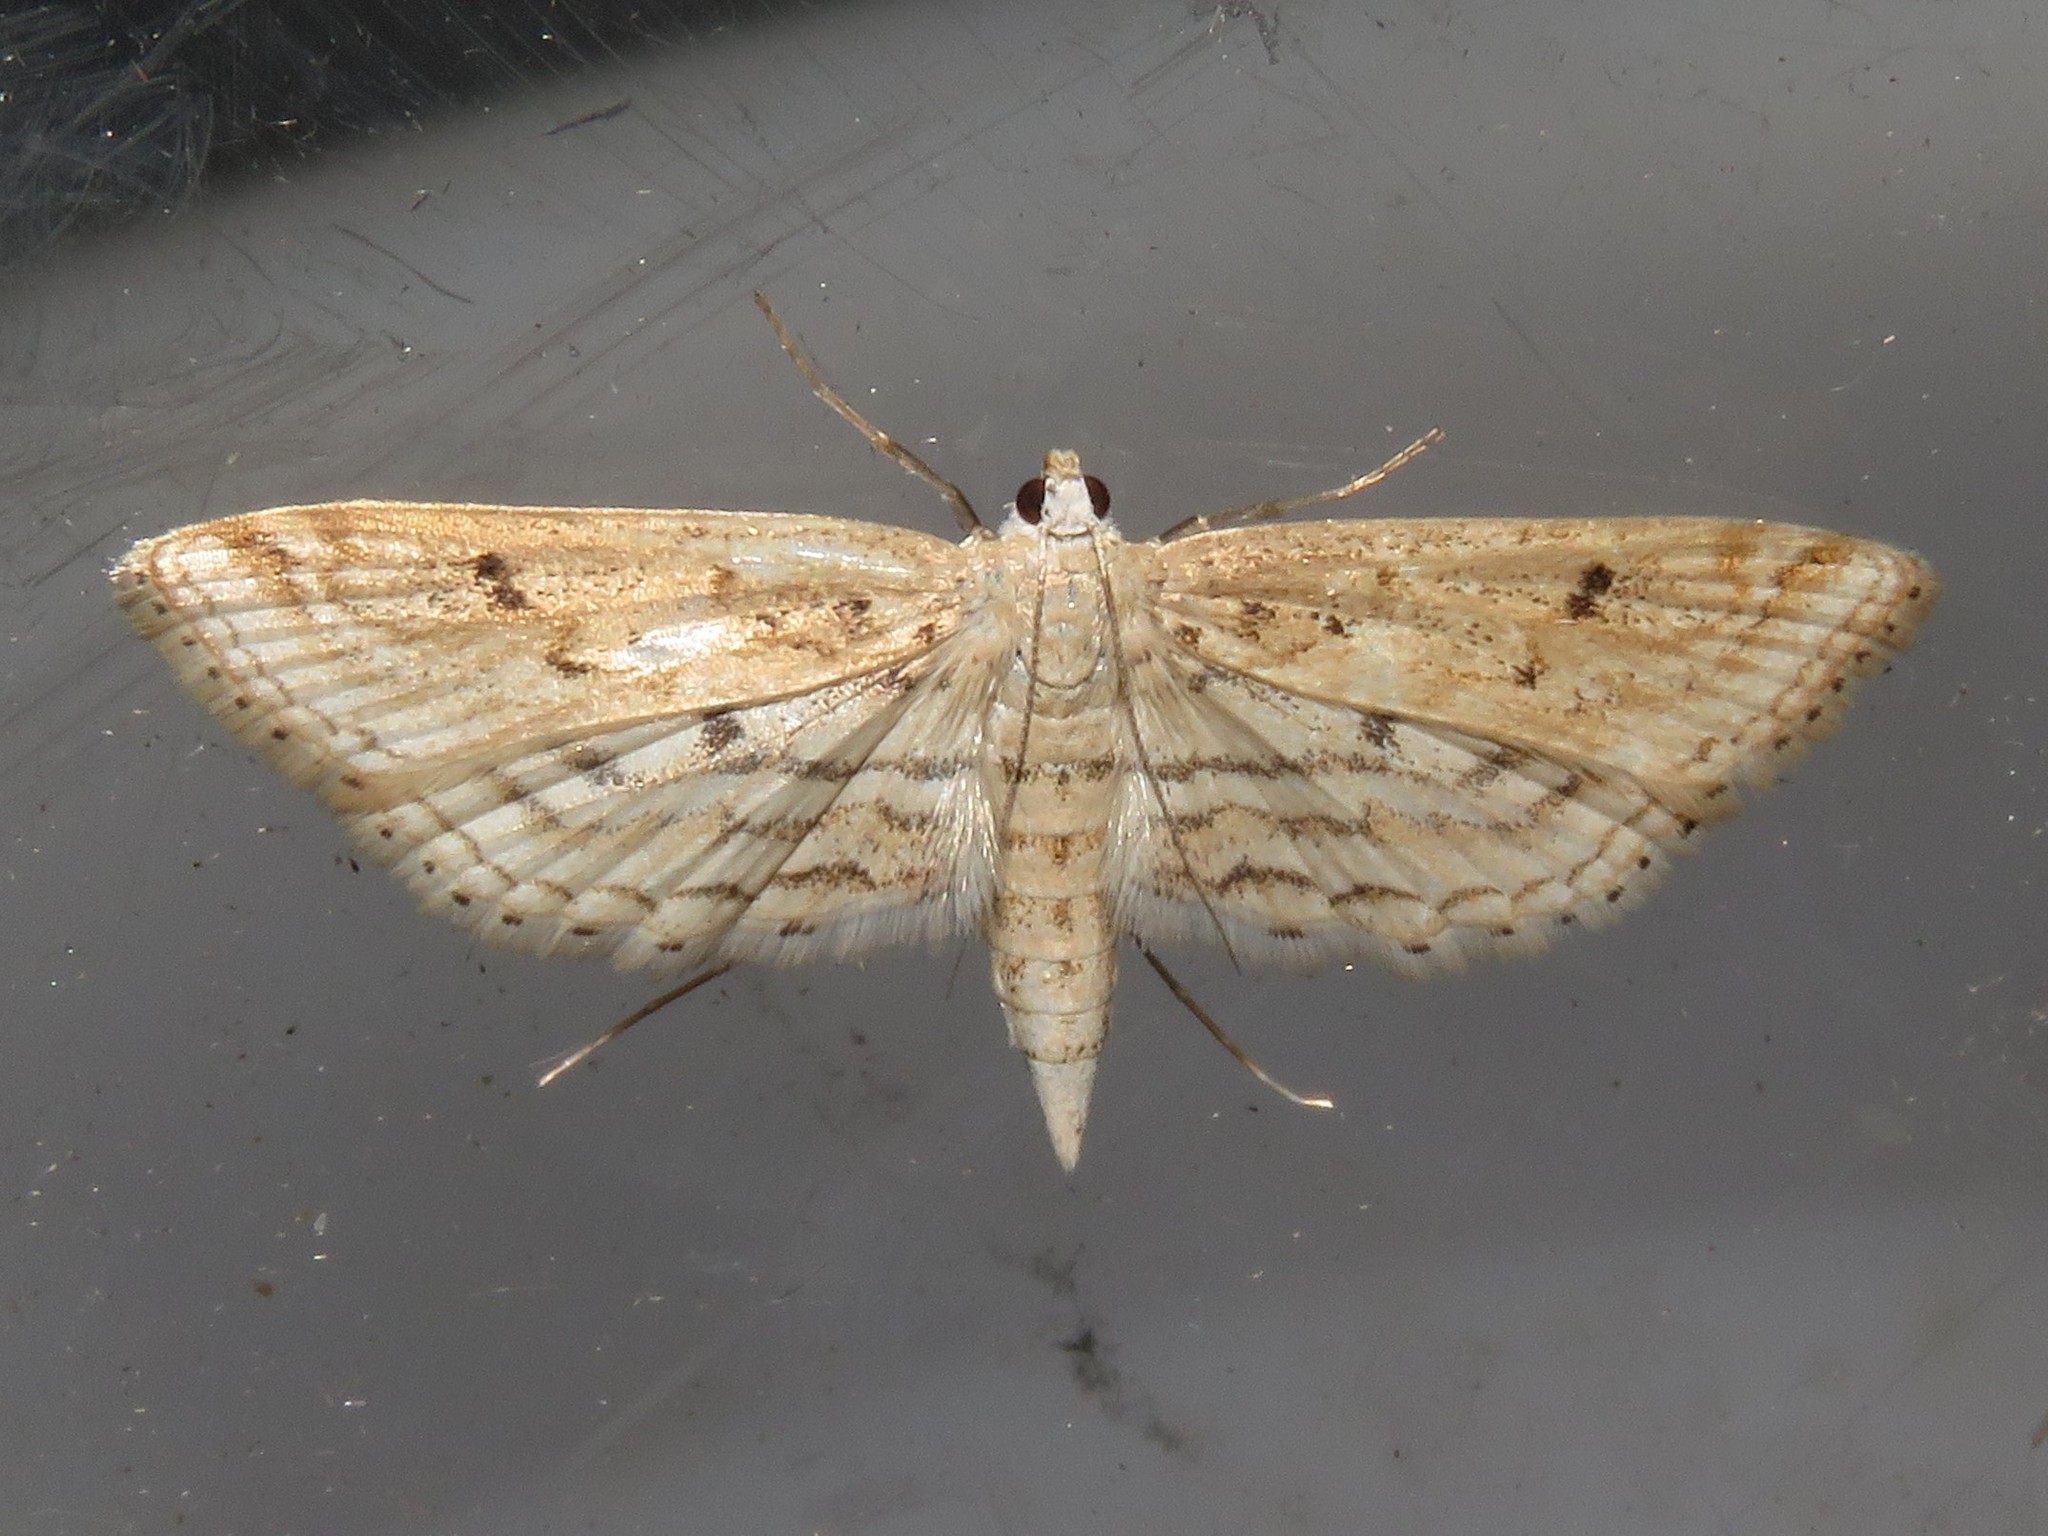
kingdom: Animalia
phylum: Arthropoda
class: Insecta
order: Lepidoptera
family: Crambidae
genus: Parapoynx
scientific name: Parapoynx allionealis
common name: Bladderwort casemaker
